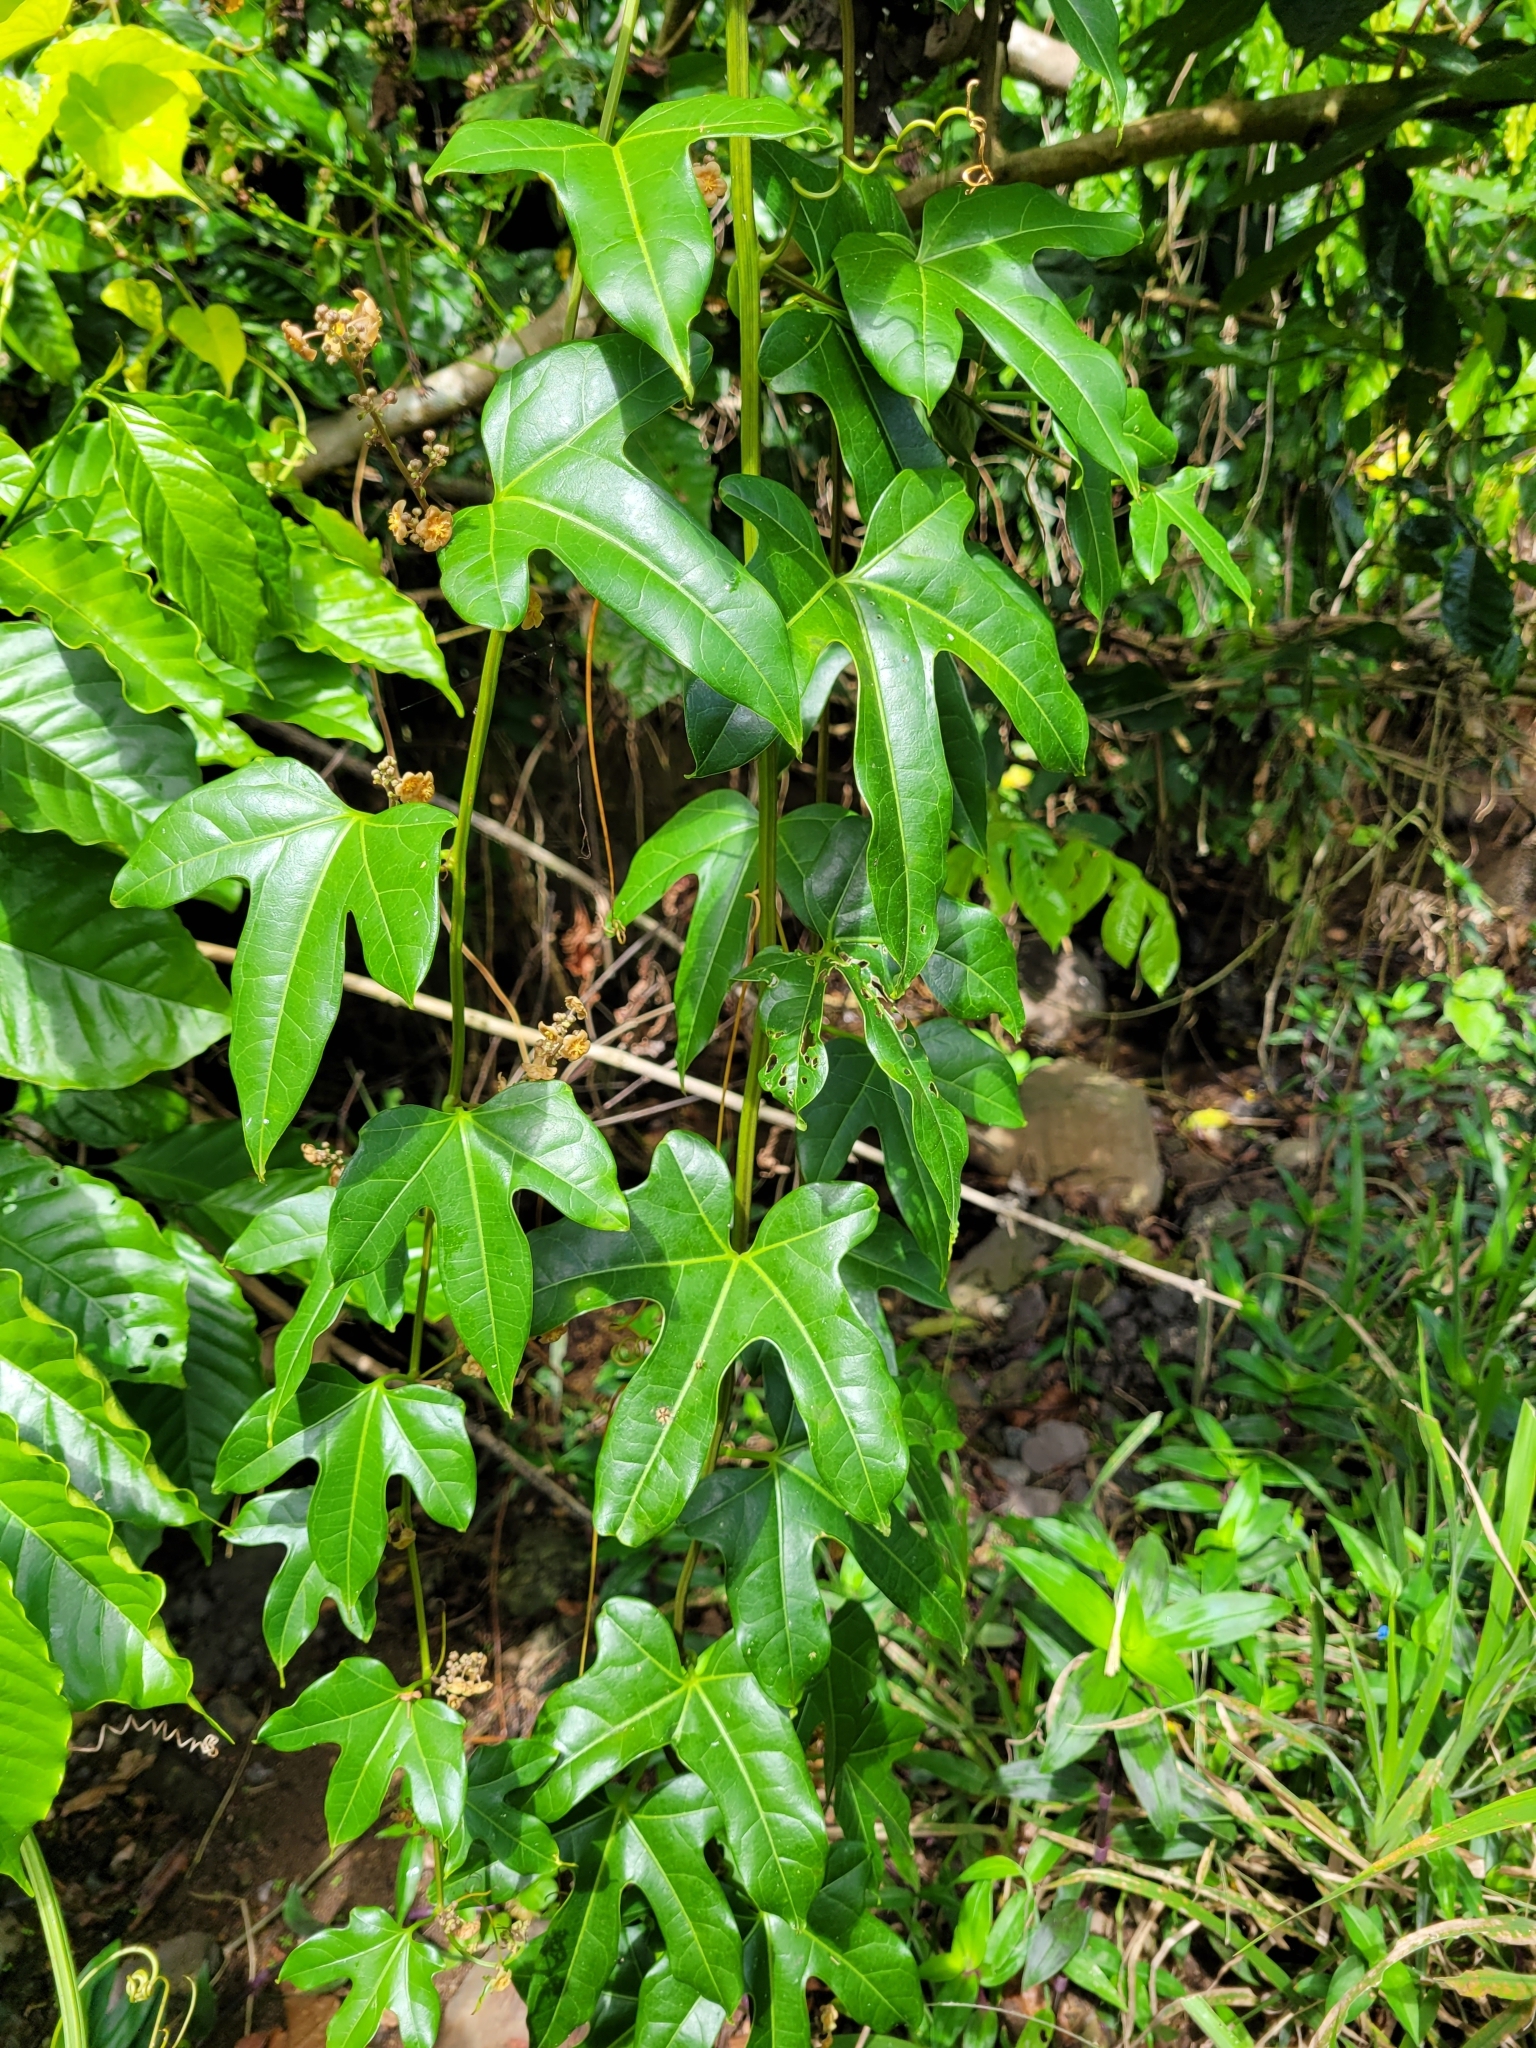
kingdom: Plantae
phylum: Tracheophyta
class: Magnoliopsida
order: Cucurbitales
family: Cucurbitaceae
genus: Fevillea
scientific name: Fevillea cordifolia
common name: Antidote-vine
